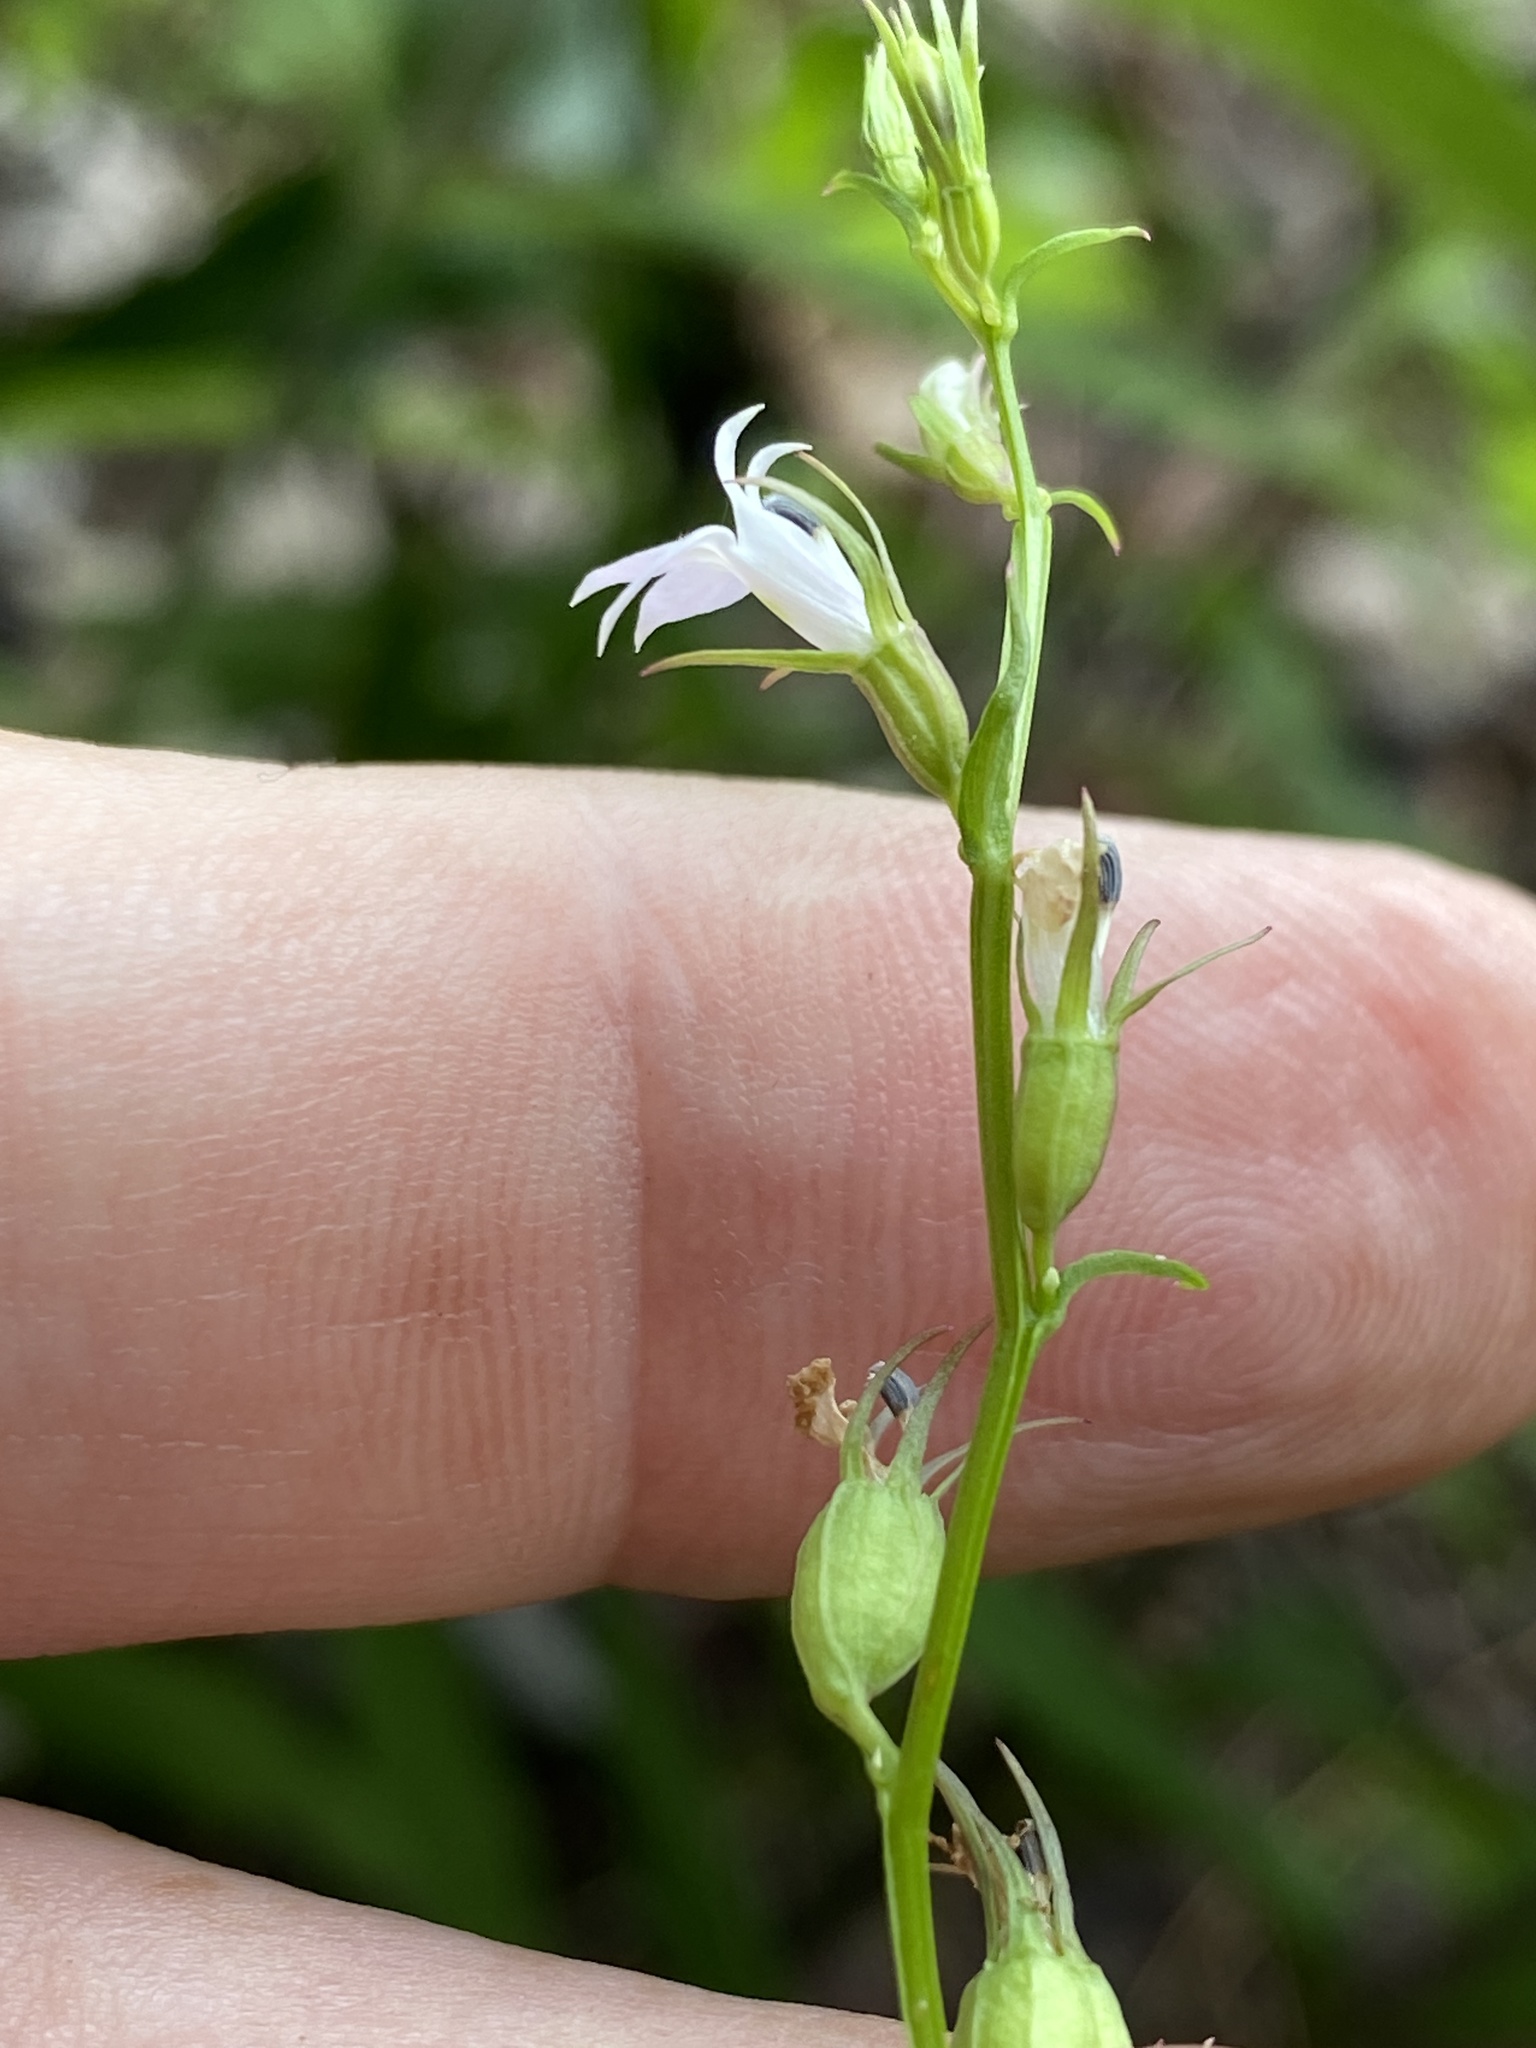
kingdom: Plantae
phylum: Tracheophyta
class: Magnoliopsida
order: Asterales
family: Campanulaceae
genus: Lobelia
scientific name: Lobelia inflata
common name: Indian tobacco
